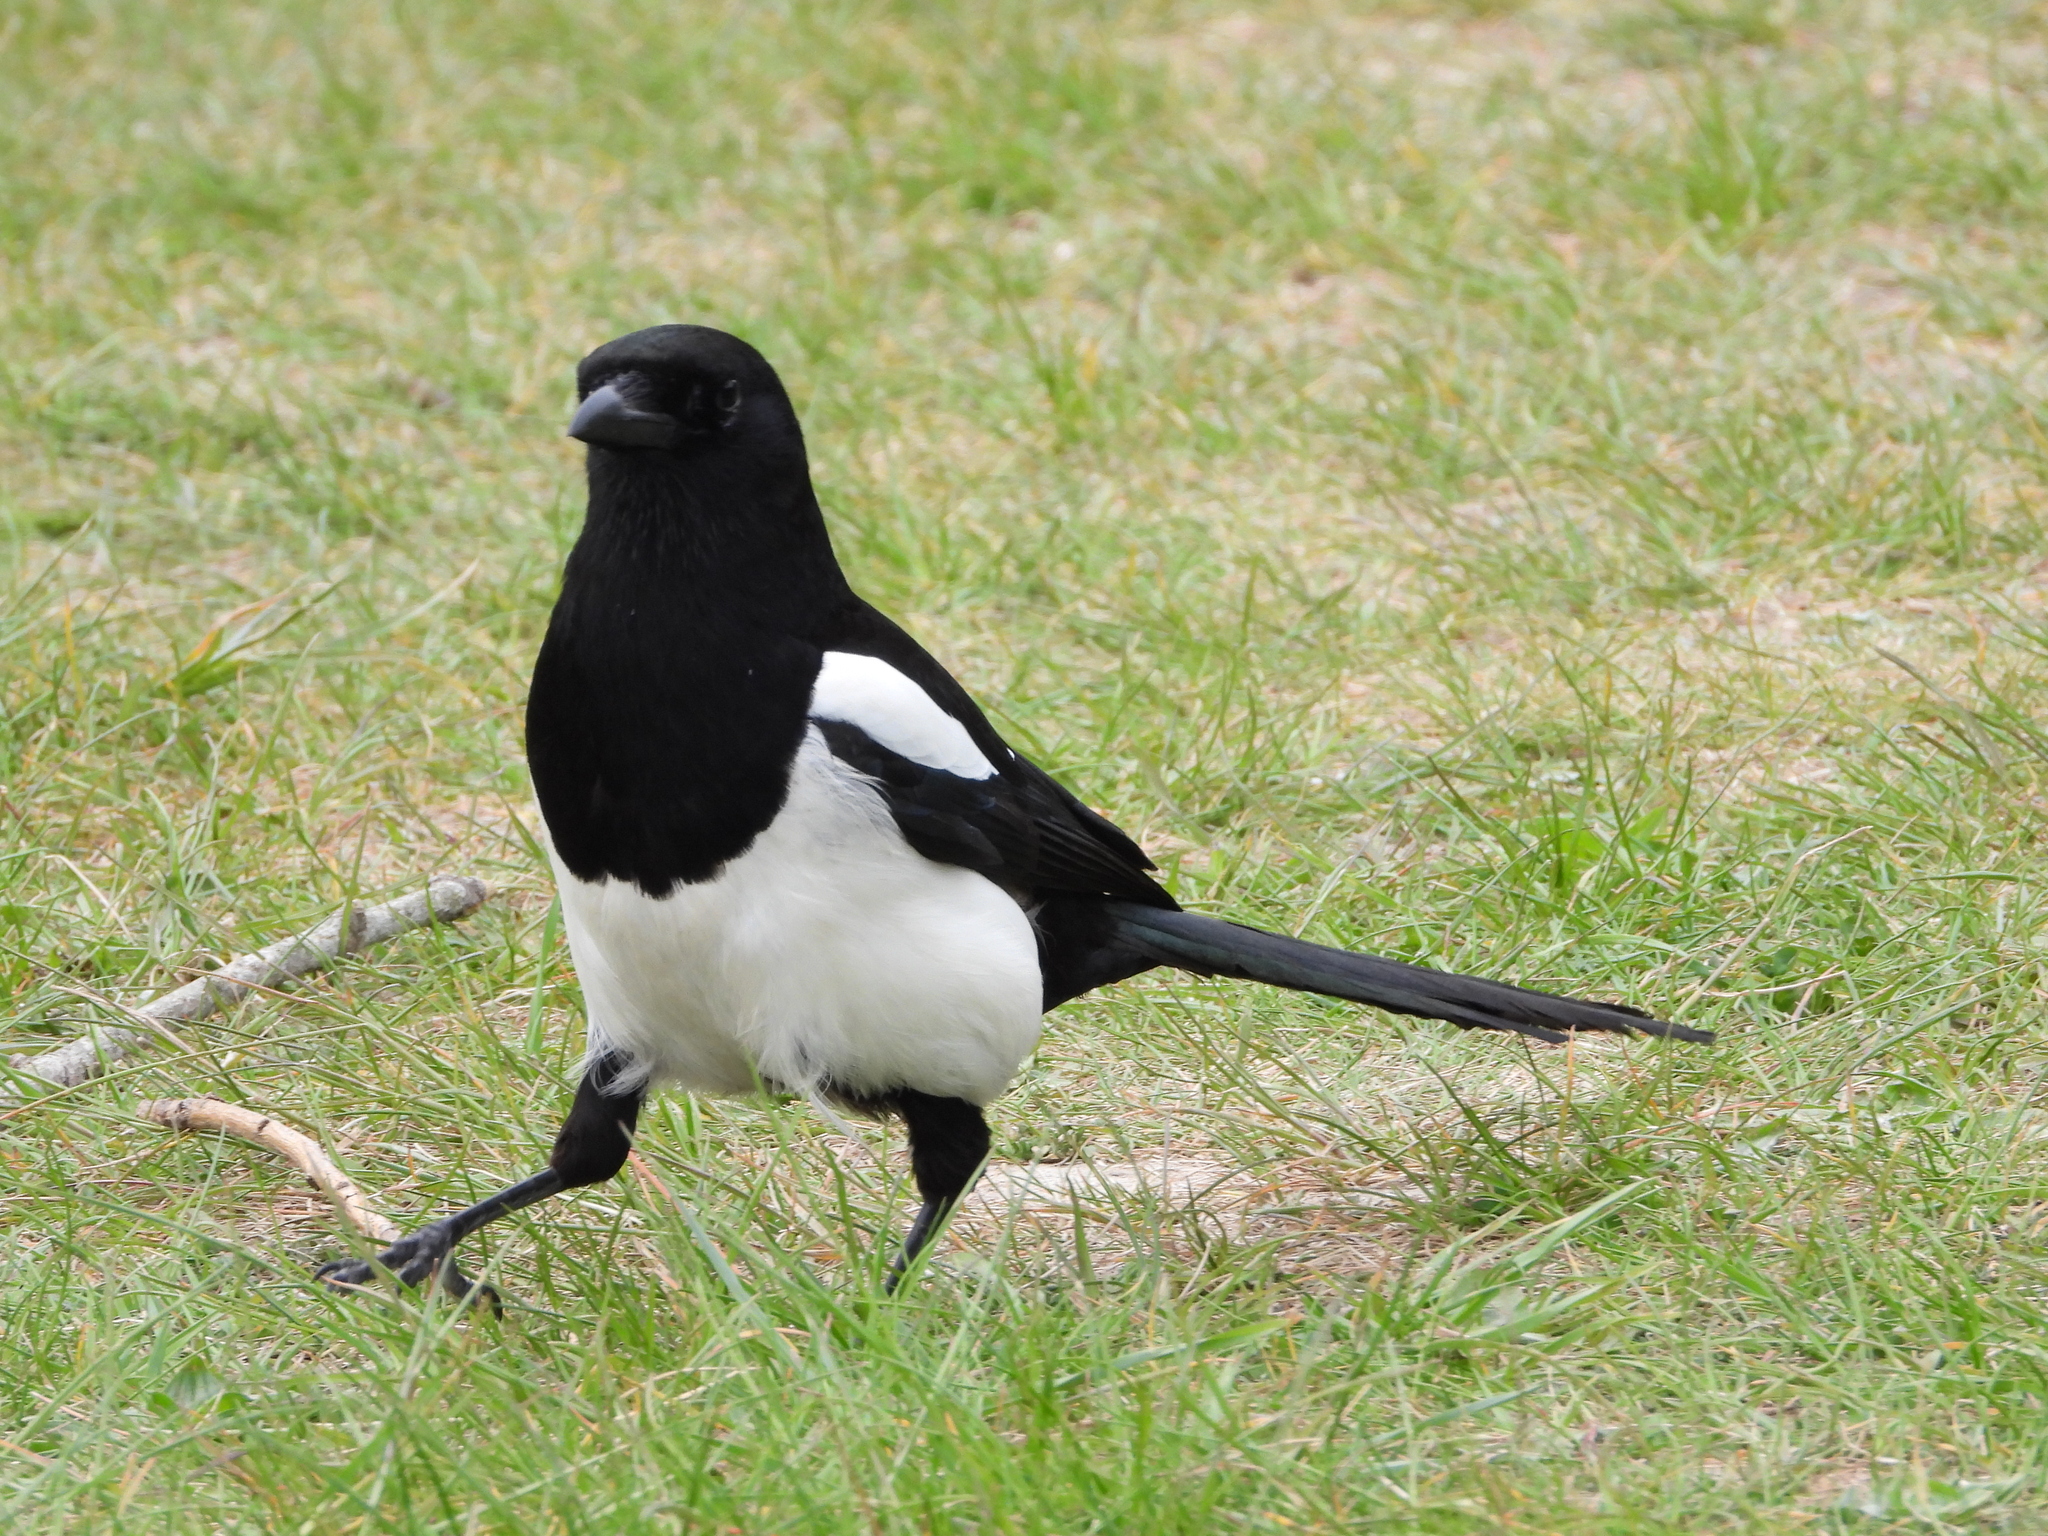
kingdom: Animalia
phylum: Chordata
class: Aves
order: Passeriformes
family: Corvidae
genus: Pica
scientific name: Pica pica
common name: Eurasian magpie
